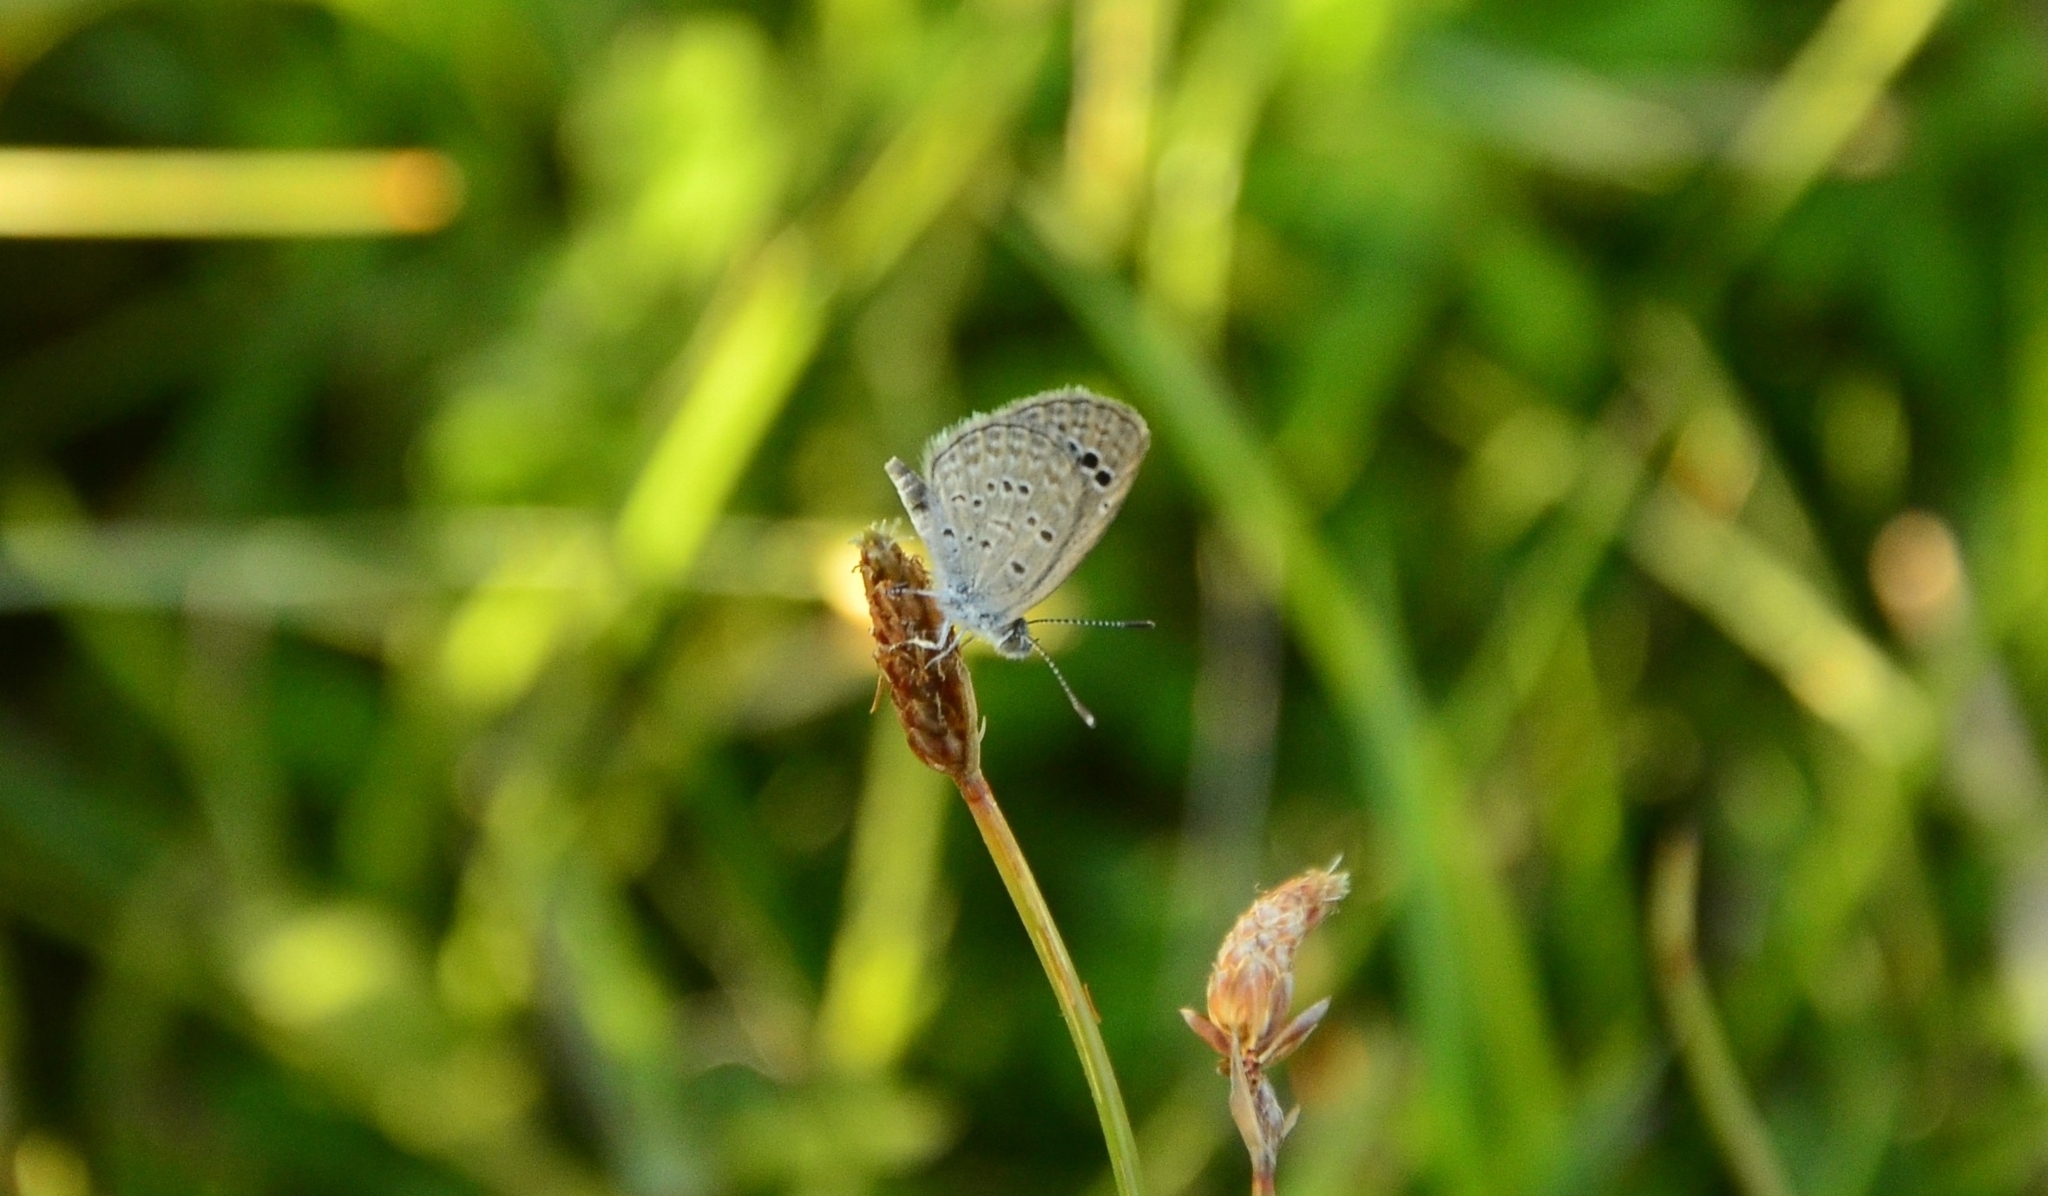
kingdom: Animalia
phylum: Arthropoda
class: Insecta
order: Lepidoptera
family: Lycaenidae
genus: Zizina
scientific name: Zizina otis
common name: Lesser grass blue
